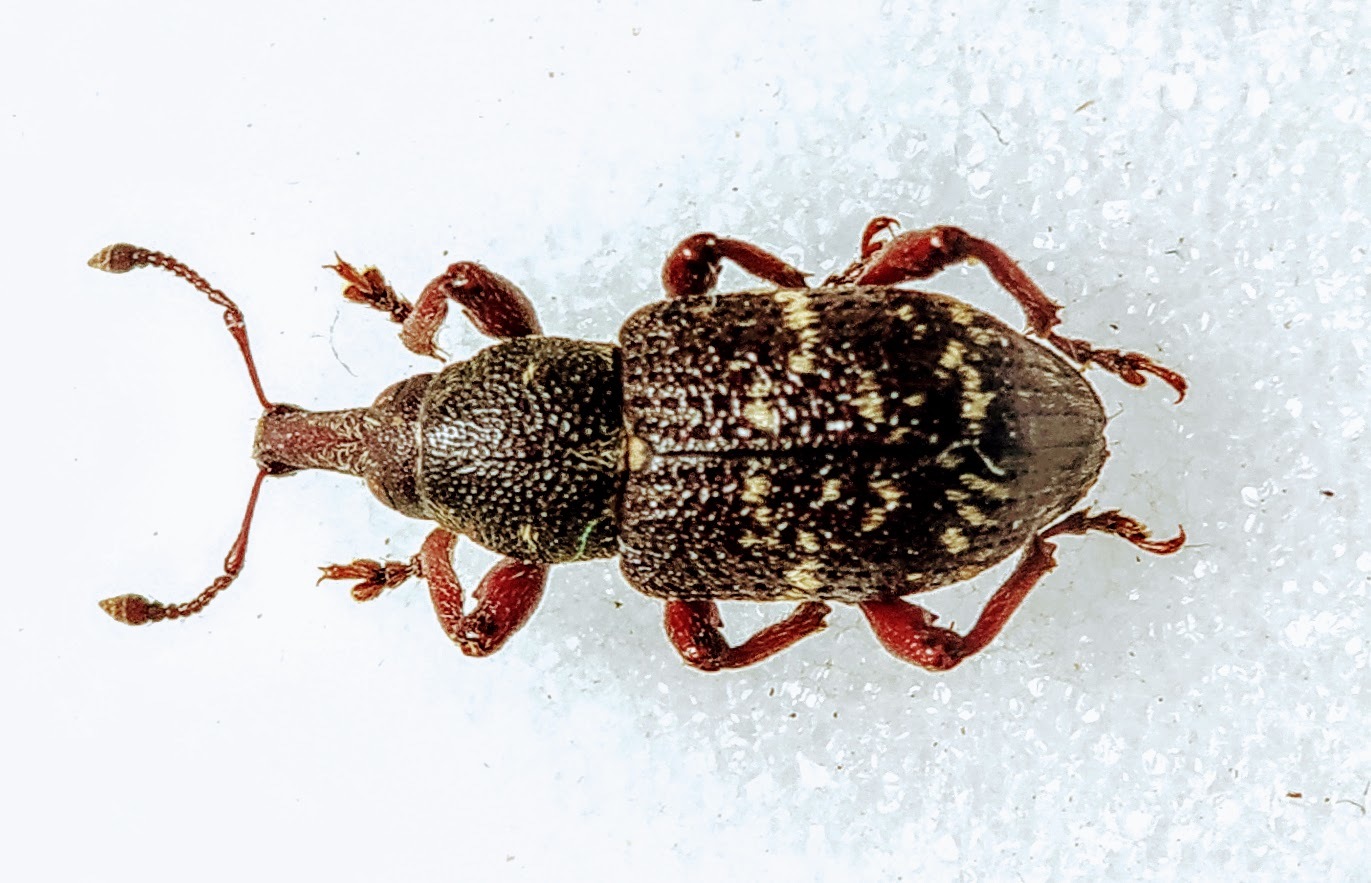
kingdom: Animalia
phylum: Arthropoda
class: Insecta
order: Coleoptera
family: Curculionidae
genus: Hylobius
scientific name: Hylobius pinastri
